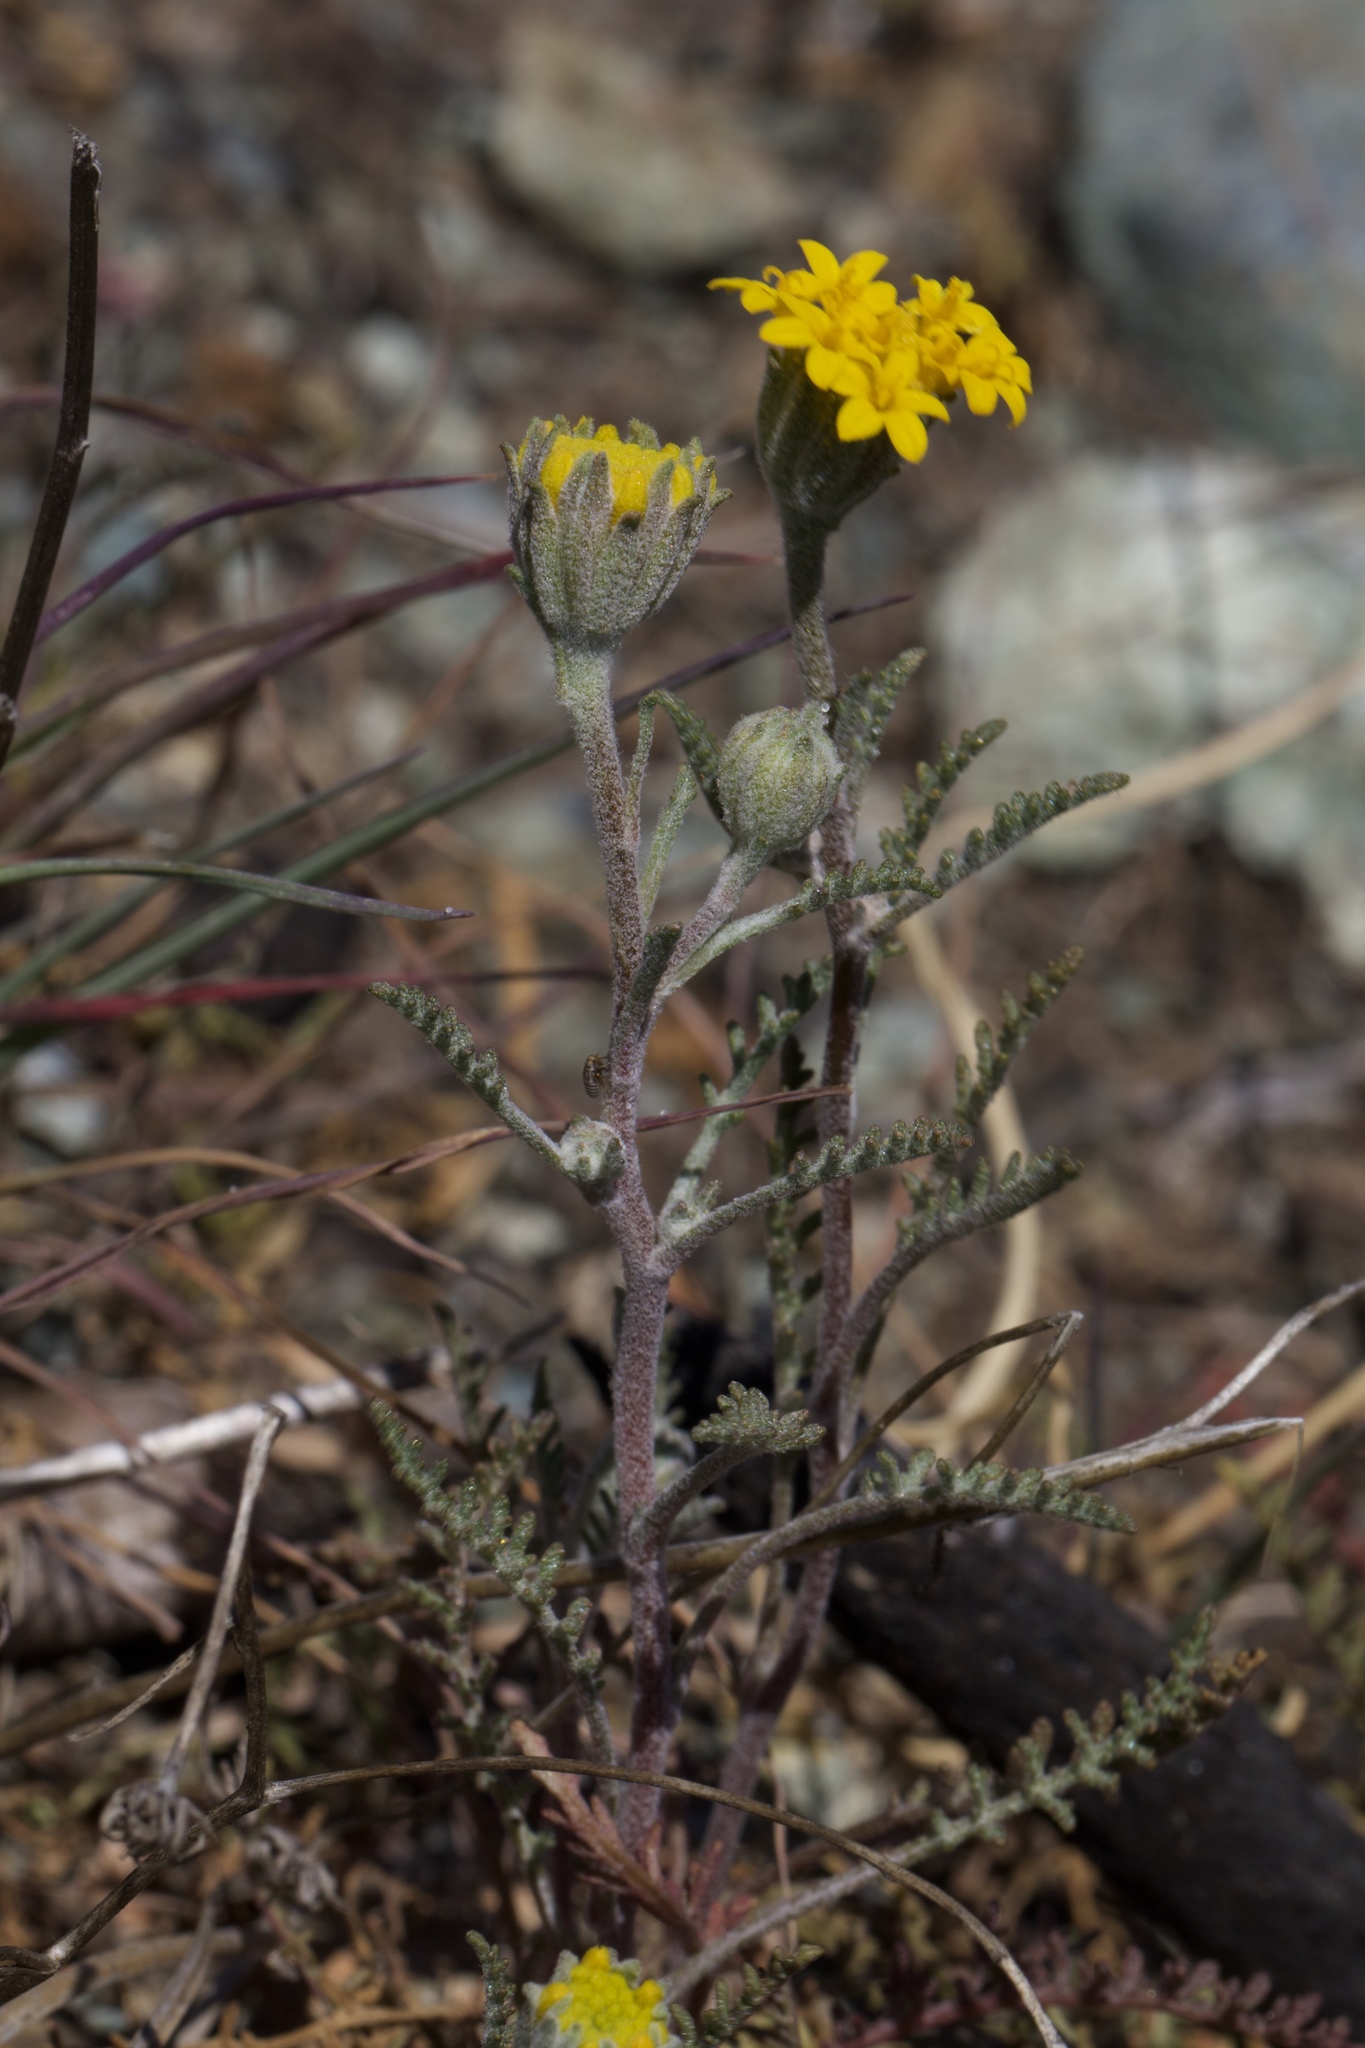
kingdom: Plantae
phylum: Tracheophyta
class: Magnoliopsida
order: Asterales
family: Asteraceae
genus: Chaenactis
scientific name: Chaenactis glabriuscula
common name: Yellow pincushion
